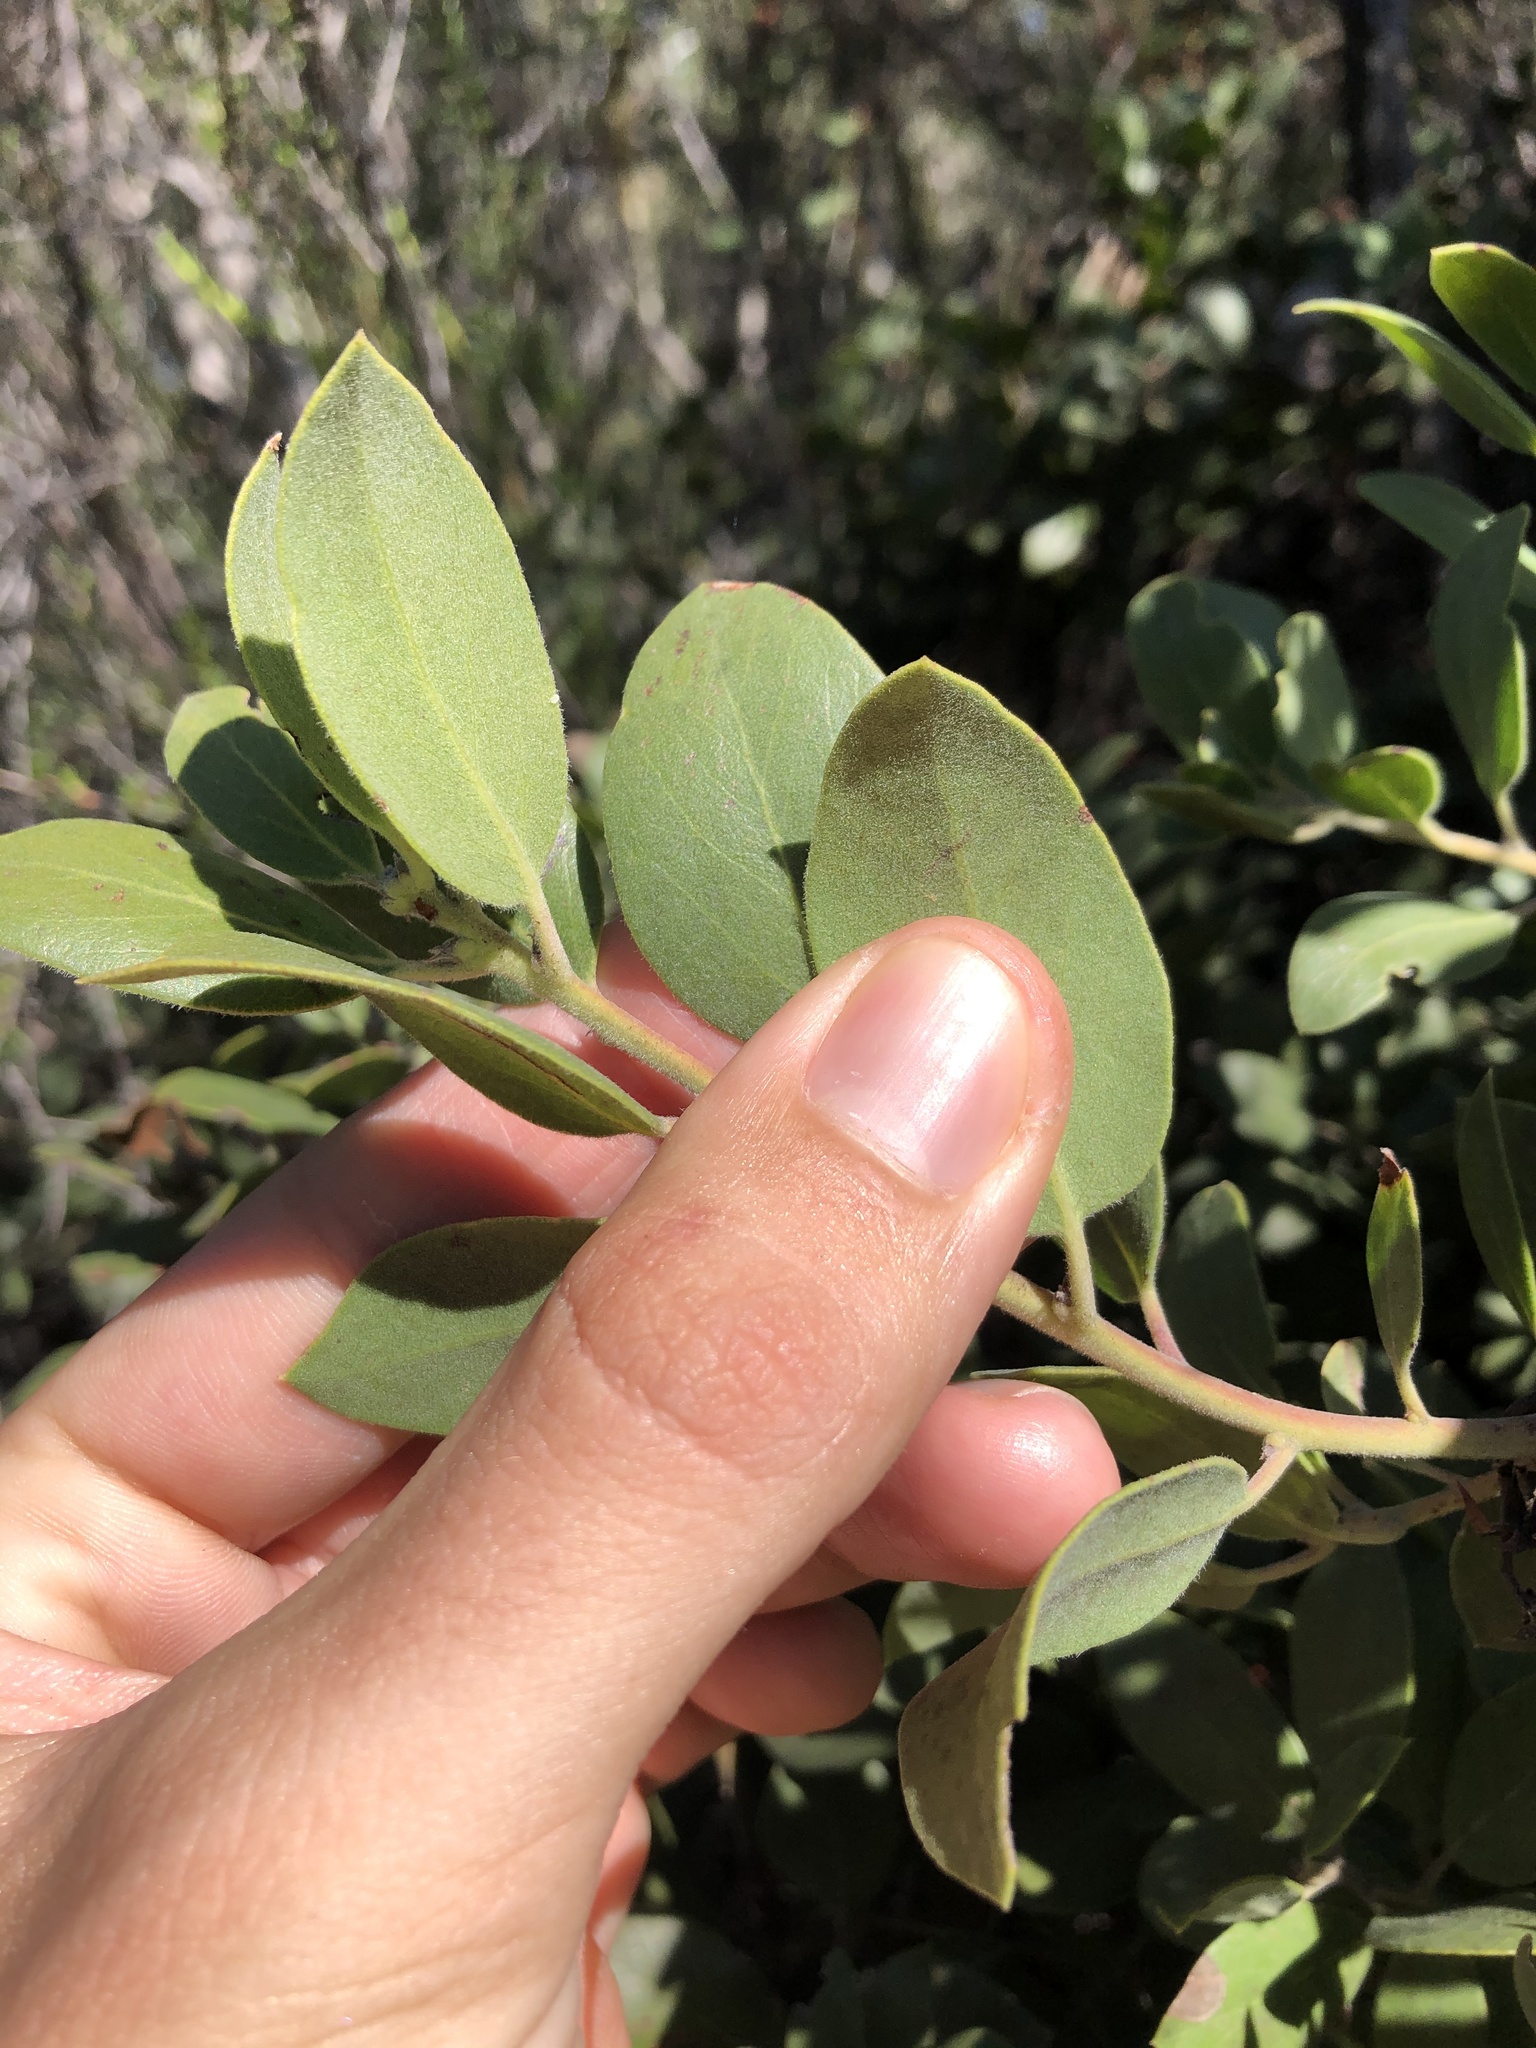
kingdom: Plantae
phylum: Tracheophyta
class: Magnoliopsida
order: Ericales
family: Ericaceae
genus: Arctostaphylos
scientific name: Arctostaphylos glandulosa
